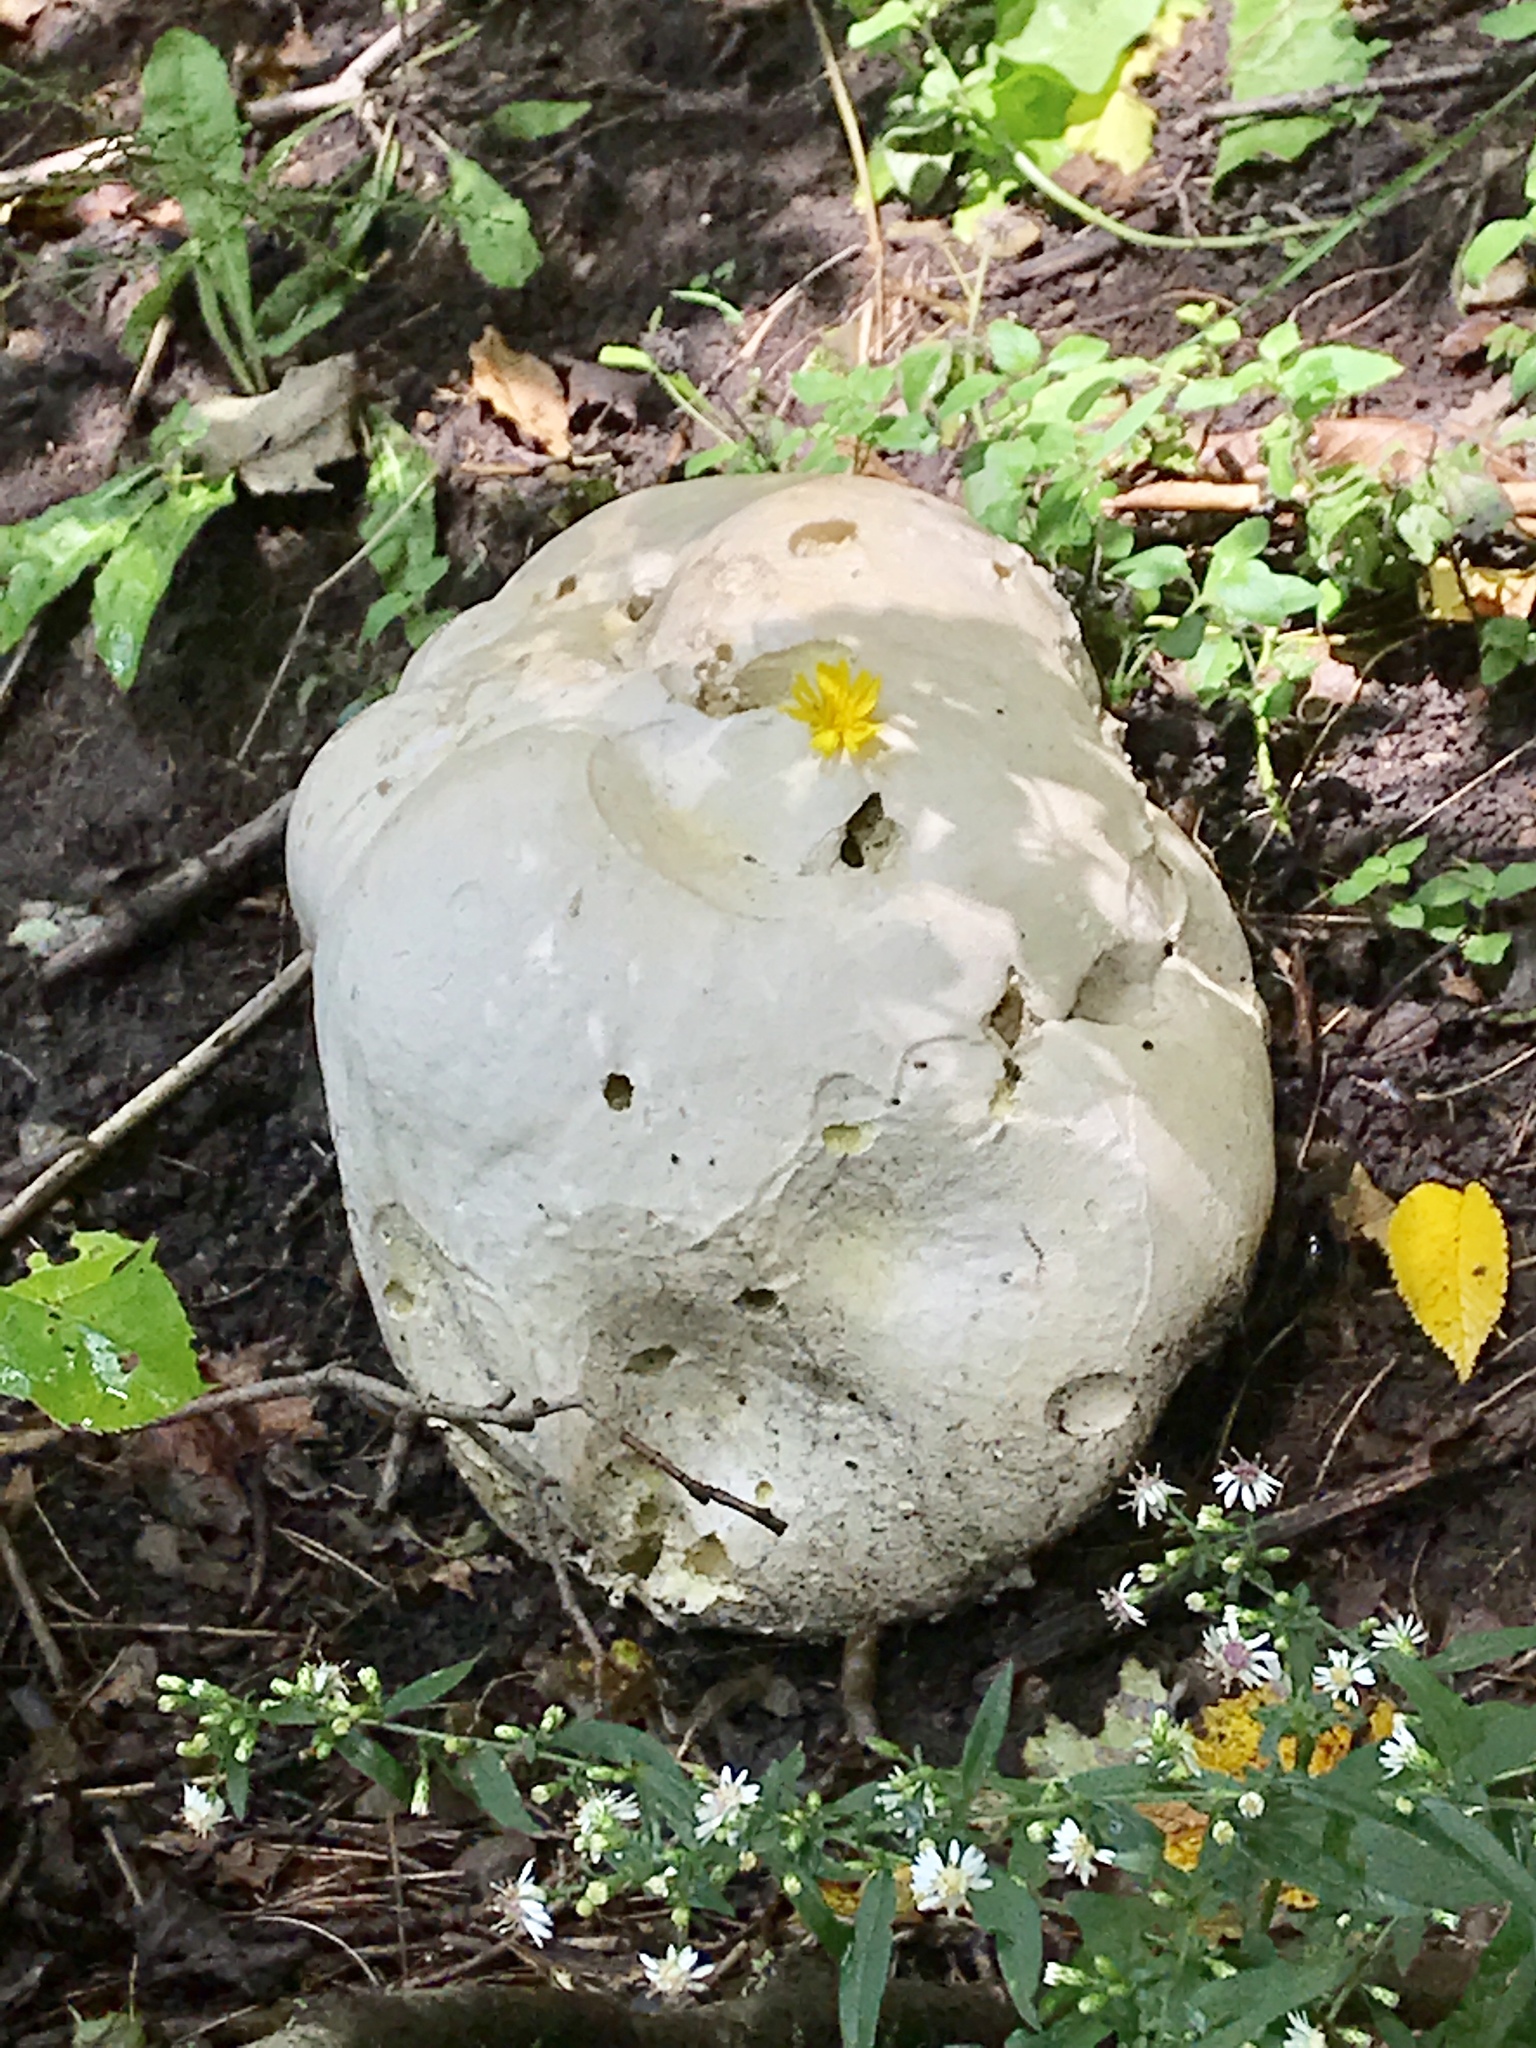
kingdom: Fungi
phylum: Basidiomycota
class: Agaricomycetes
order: Agaricales
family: Lycoperdaceae
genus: Calvatia
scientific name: Calvatia gigantea
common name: Giant puffball
